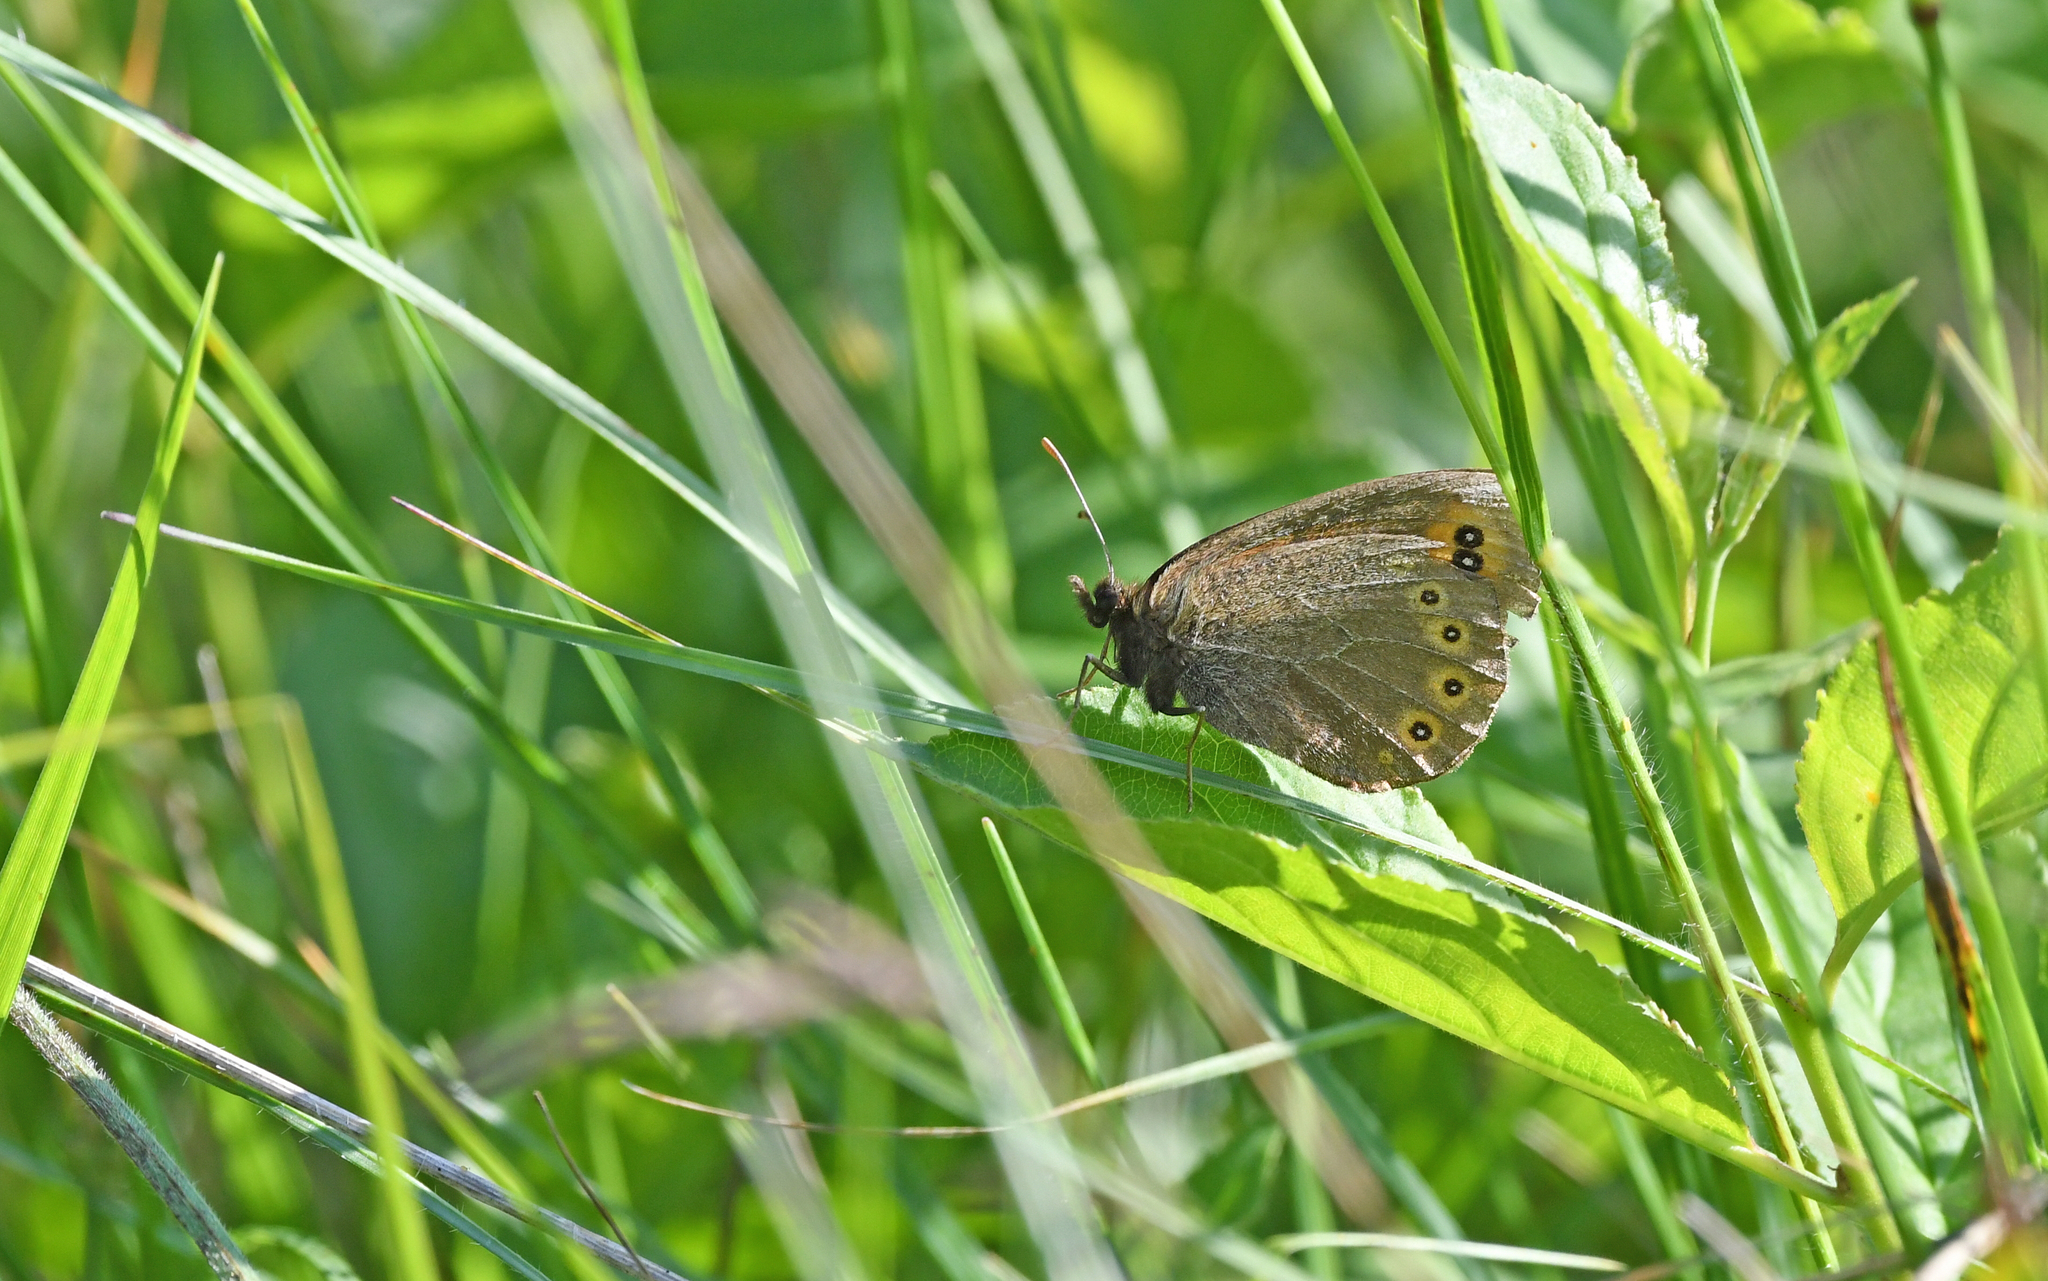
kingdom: Animalia
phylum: Arthropoda
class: Insecta
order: Lepidoptera
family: Nymphalidae
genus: Erebia
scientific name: Erebia medusa
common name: Woodland ringlet
